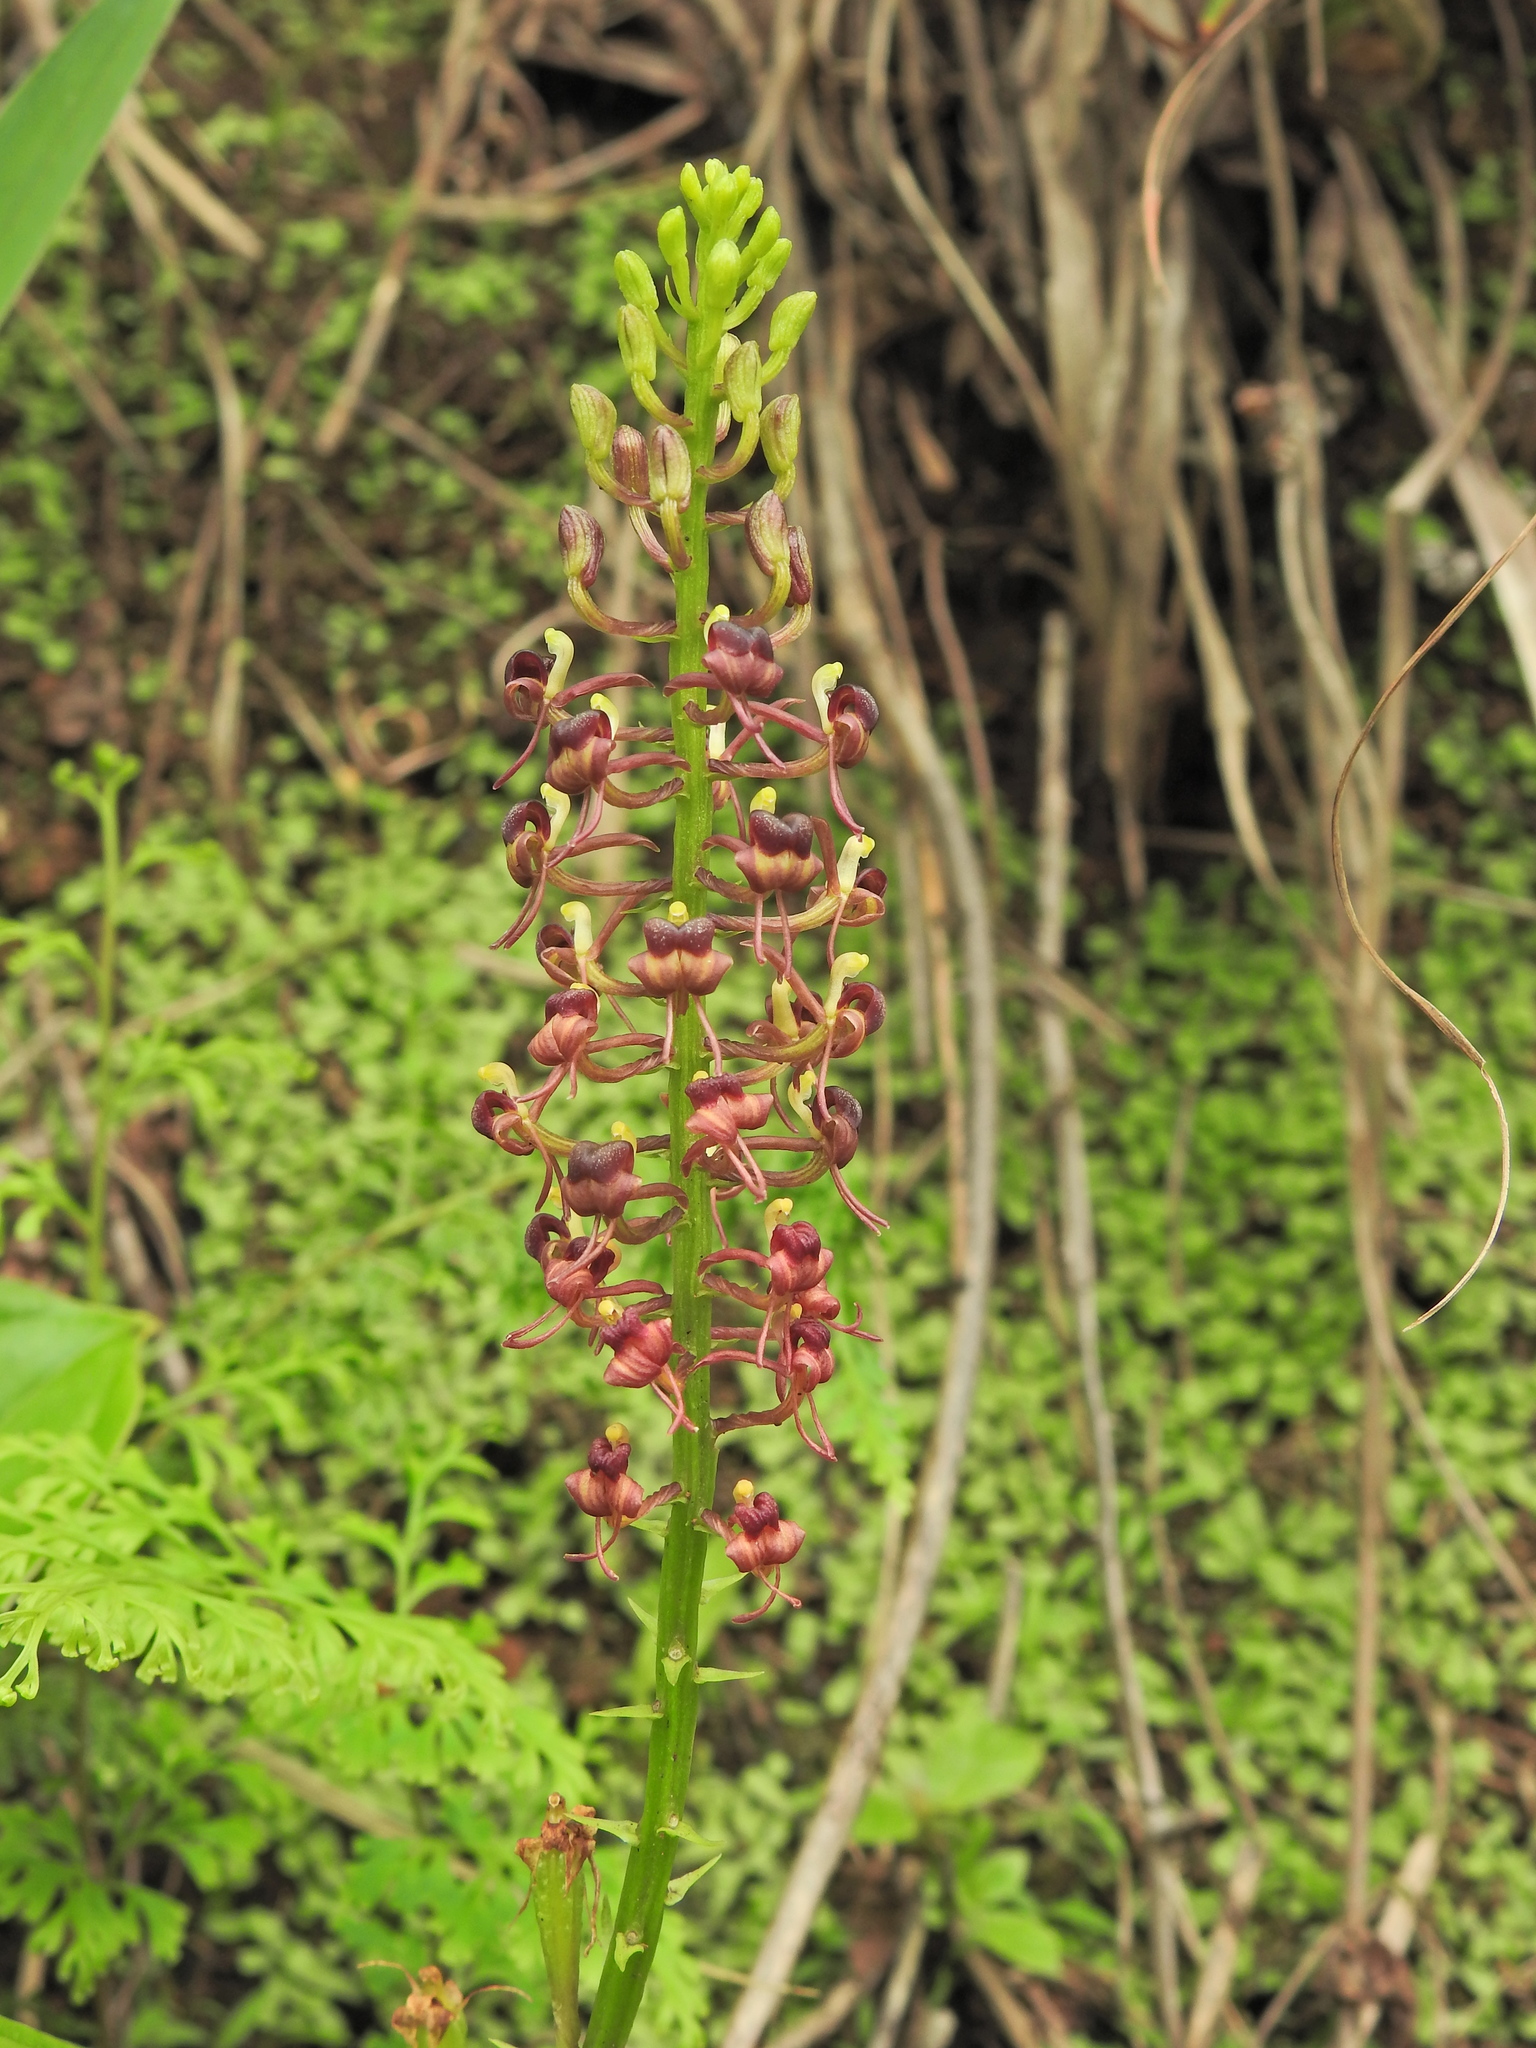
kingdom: Plantae
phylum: Tracheophyta
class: Liliopsida
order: Asparagales
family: Orchidaceae
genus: Liparis
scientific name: Liparis nervosa
